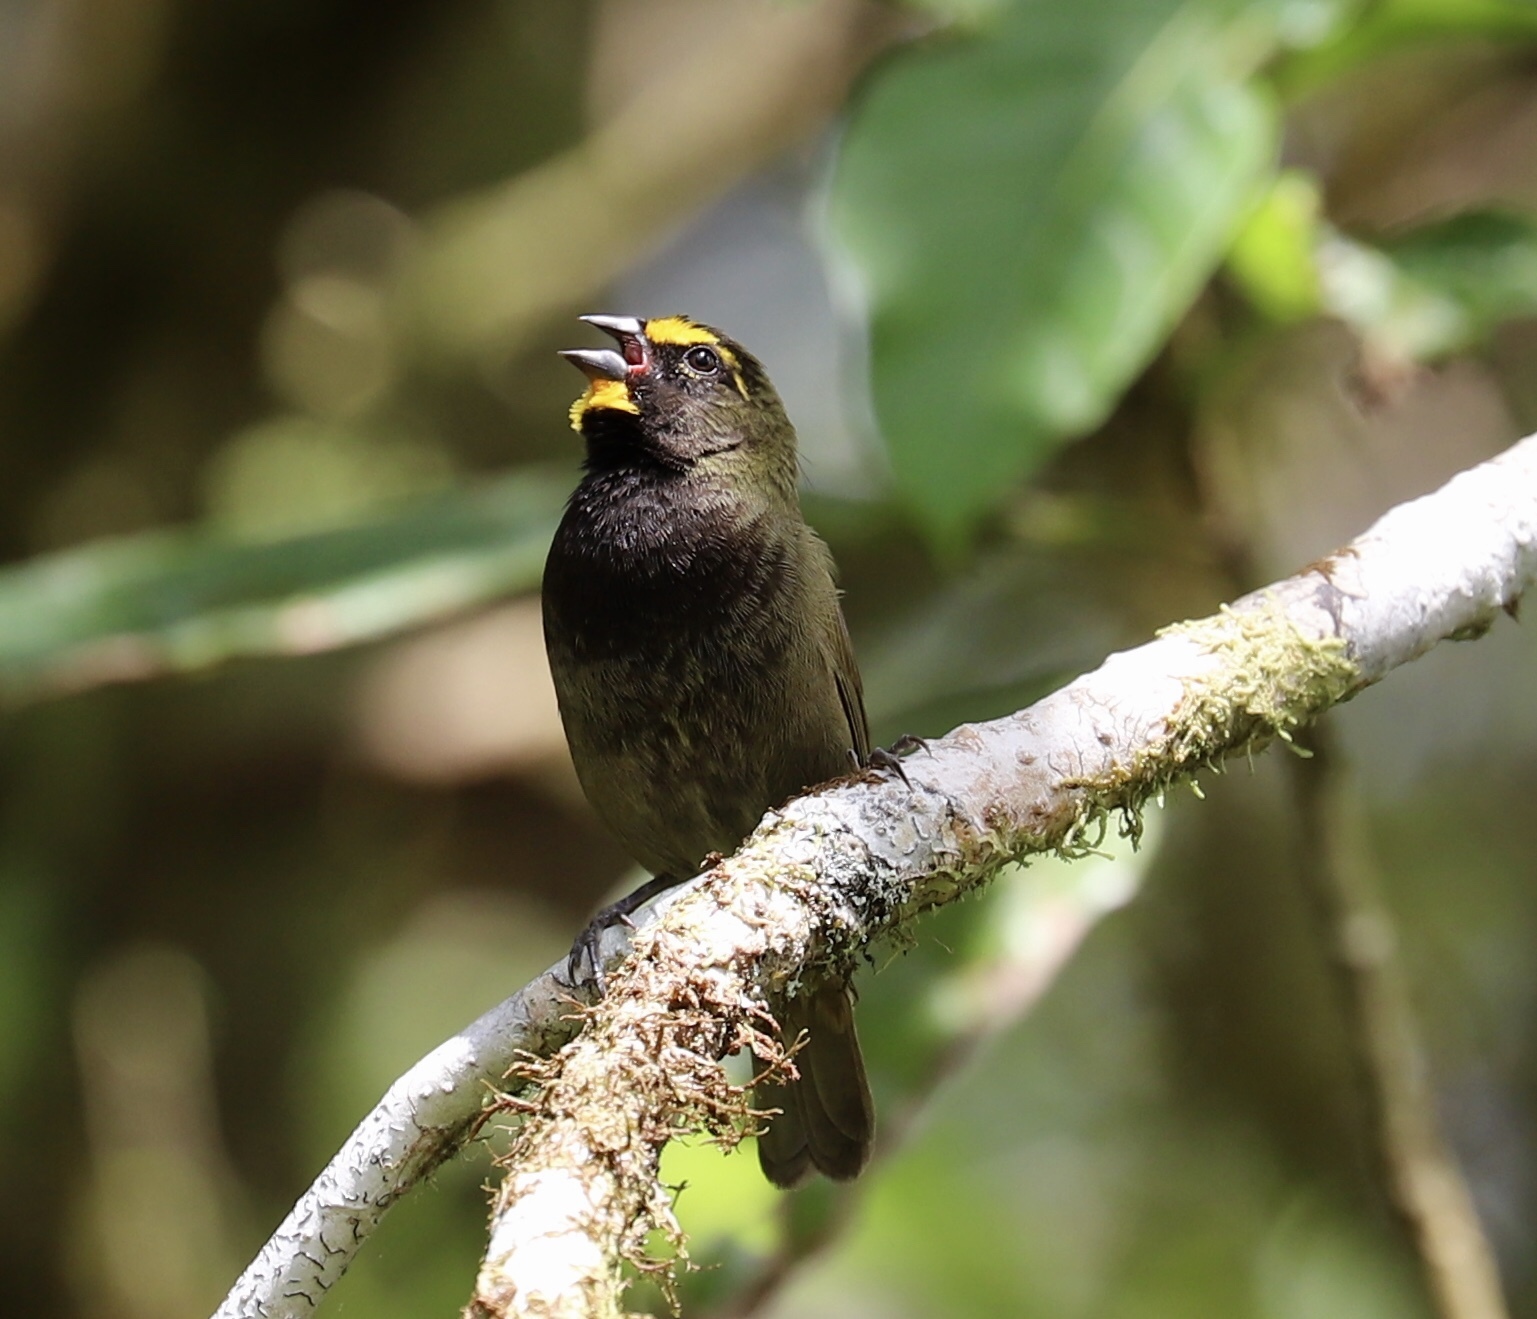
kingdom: Animalia
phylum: Chordata
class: Aves
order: Passeriformes
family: Thraupidae
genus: Tiaris
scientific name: Tiaris olivaceus
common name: Yellow-faced grassquit
